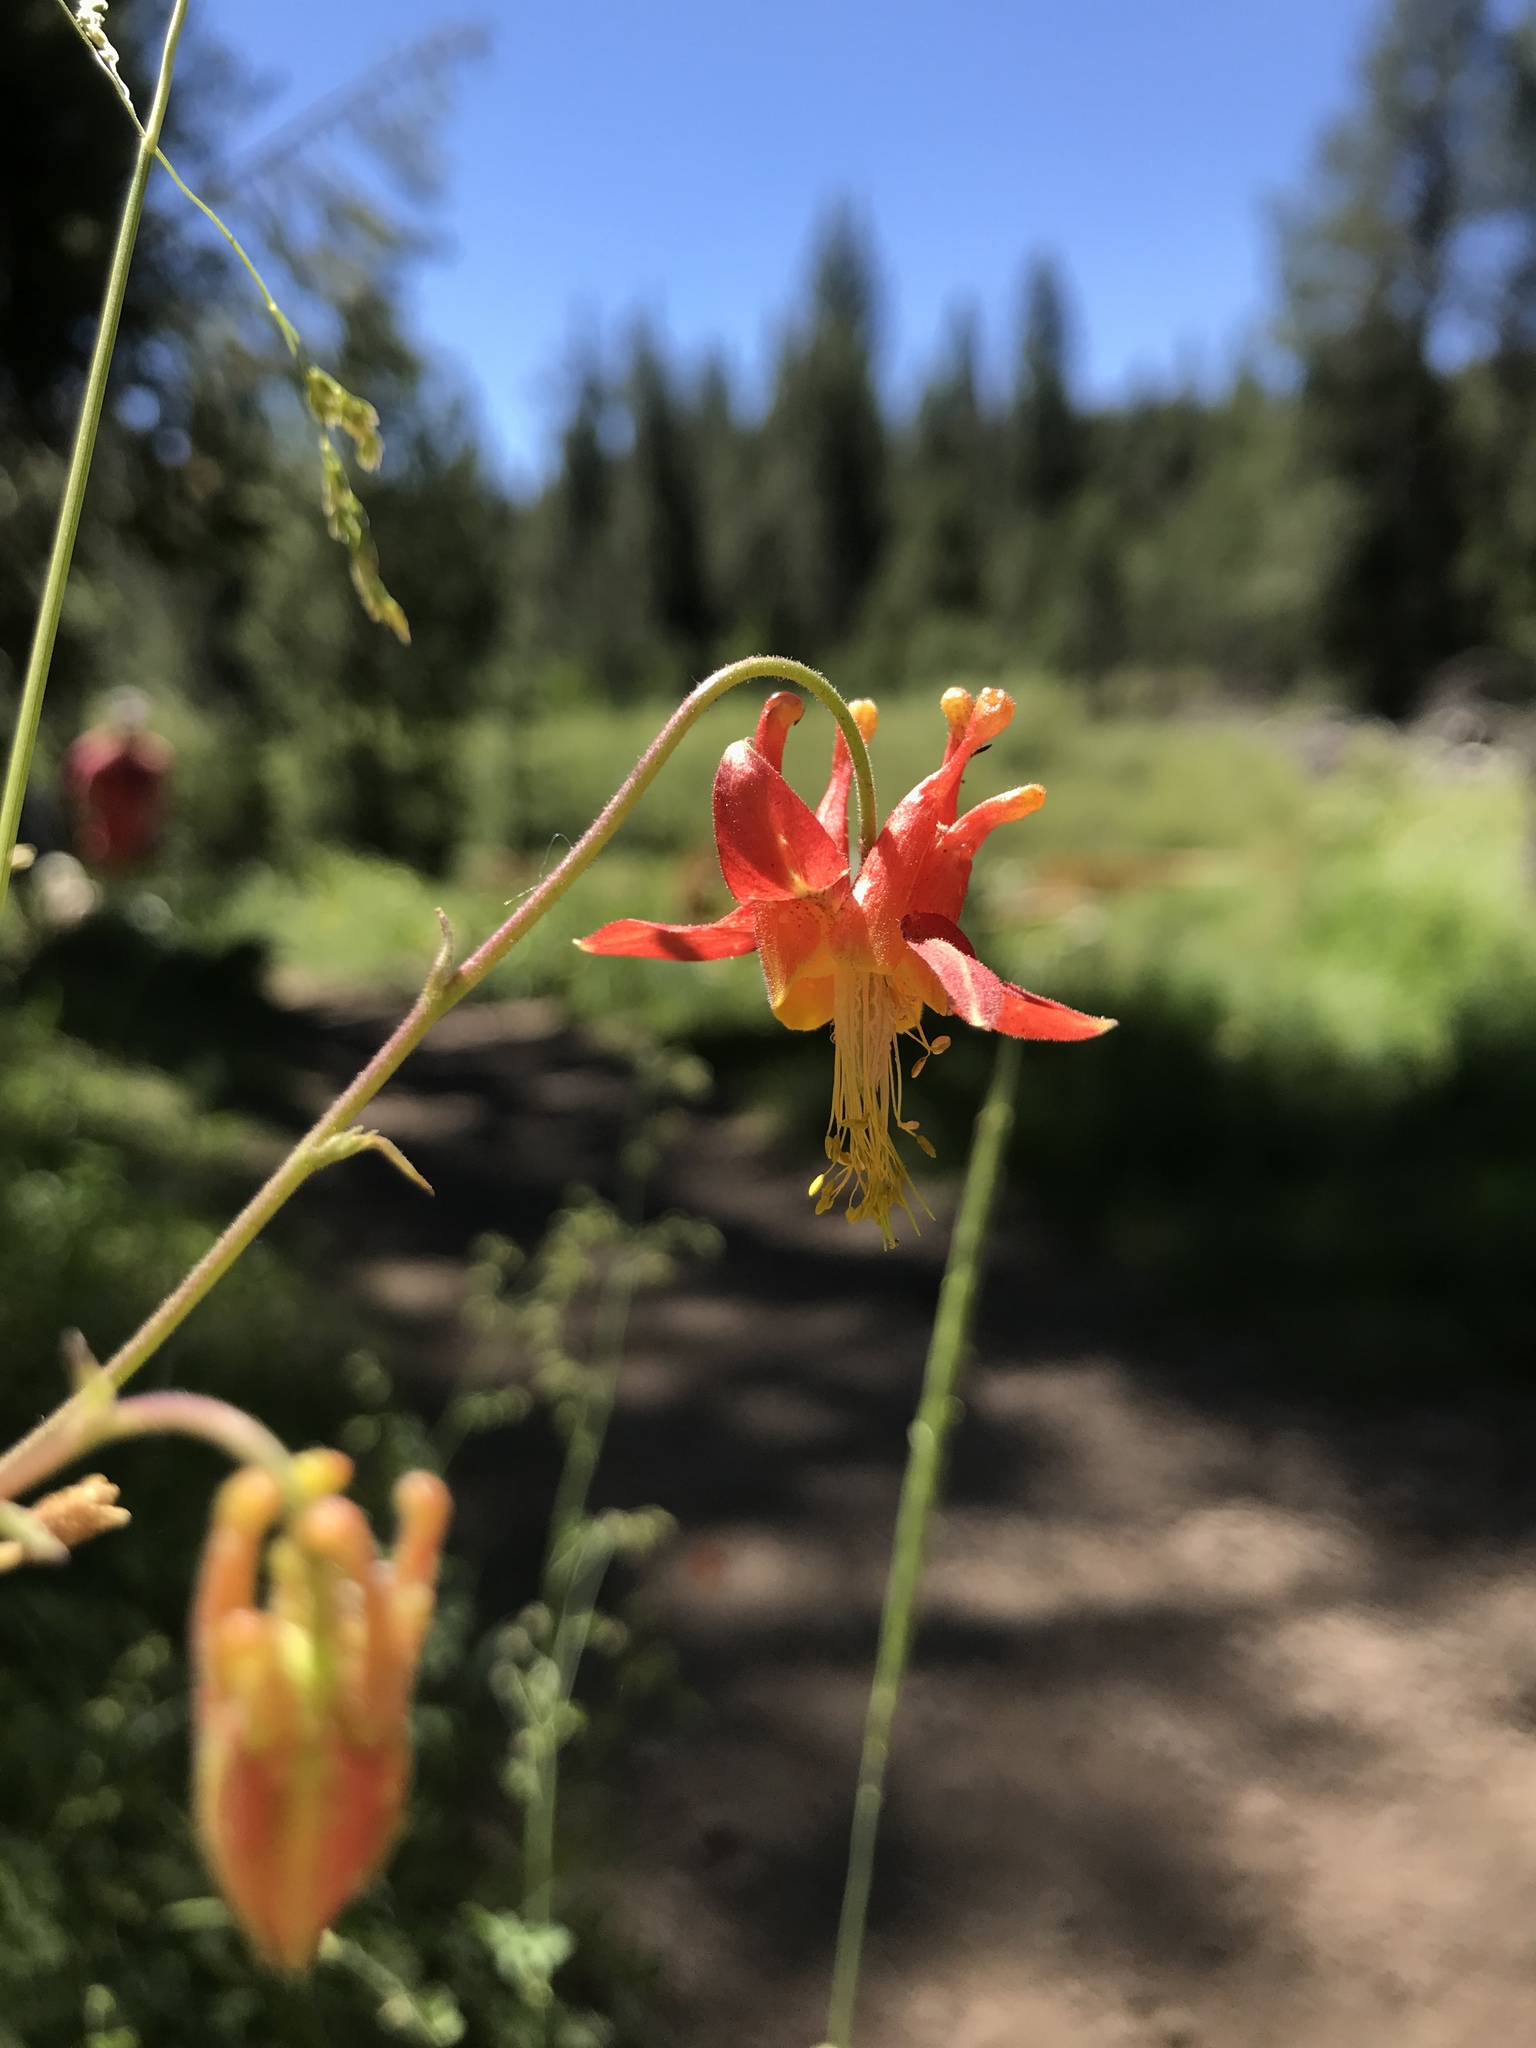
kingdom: Plantae
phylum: Tracheophyta
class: Magnoliopsida
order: Ranunculales
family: Ranunculaceae
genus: Aquilegia
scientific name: Aquilegia formosa
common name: Sitka columbine
